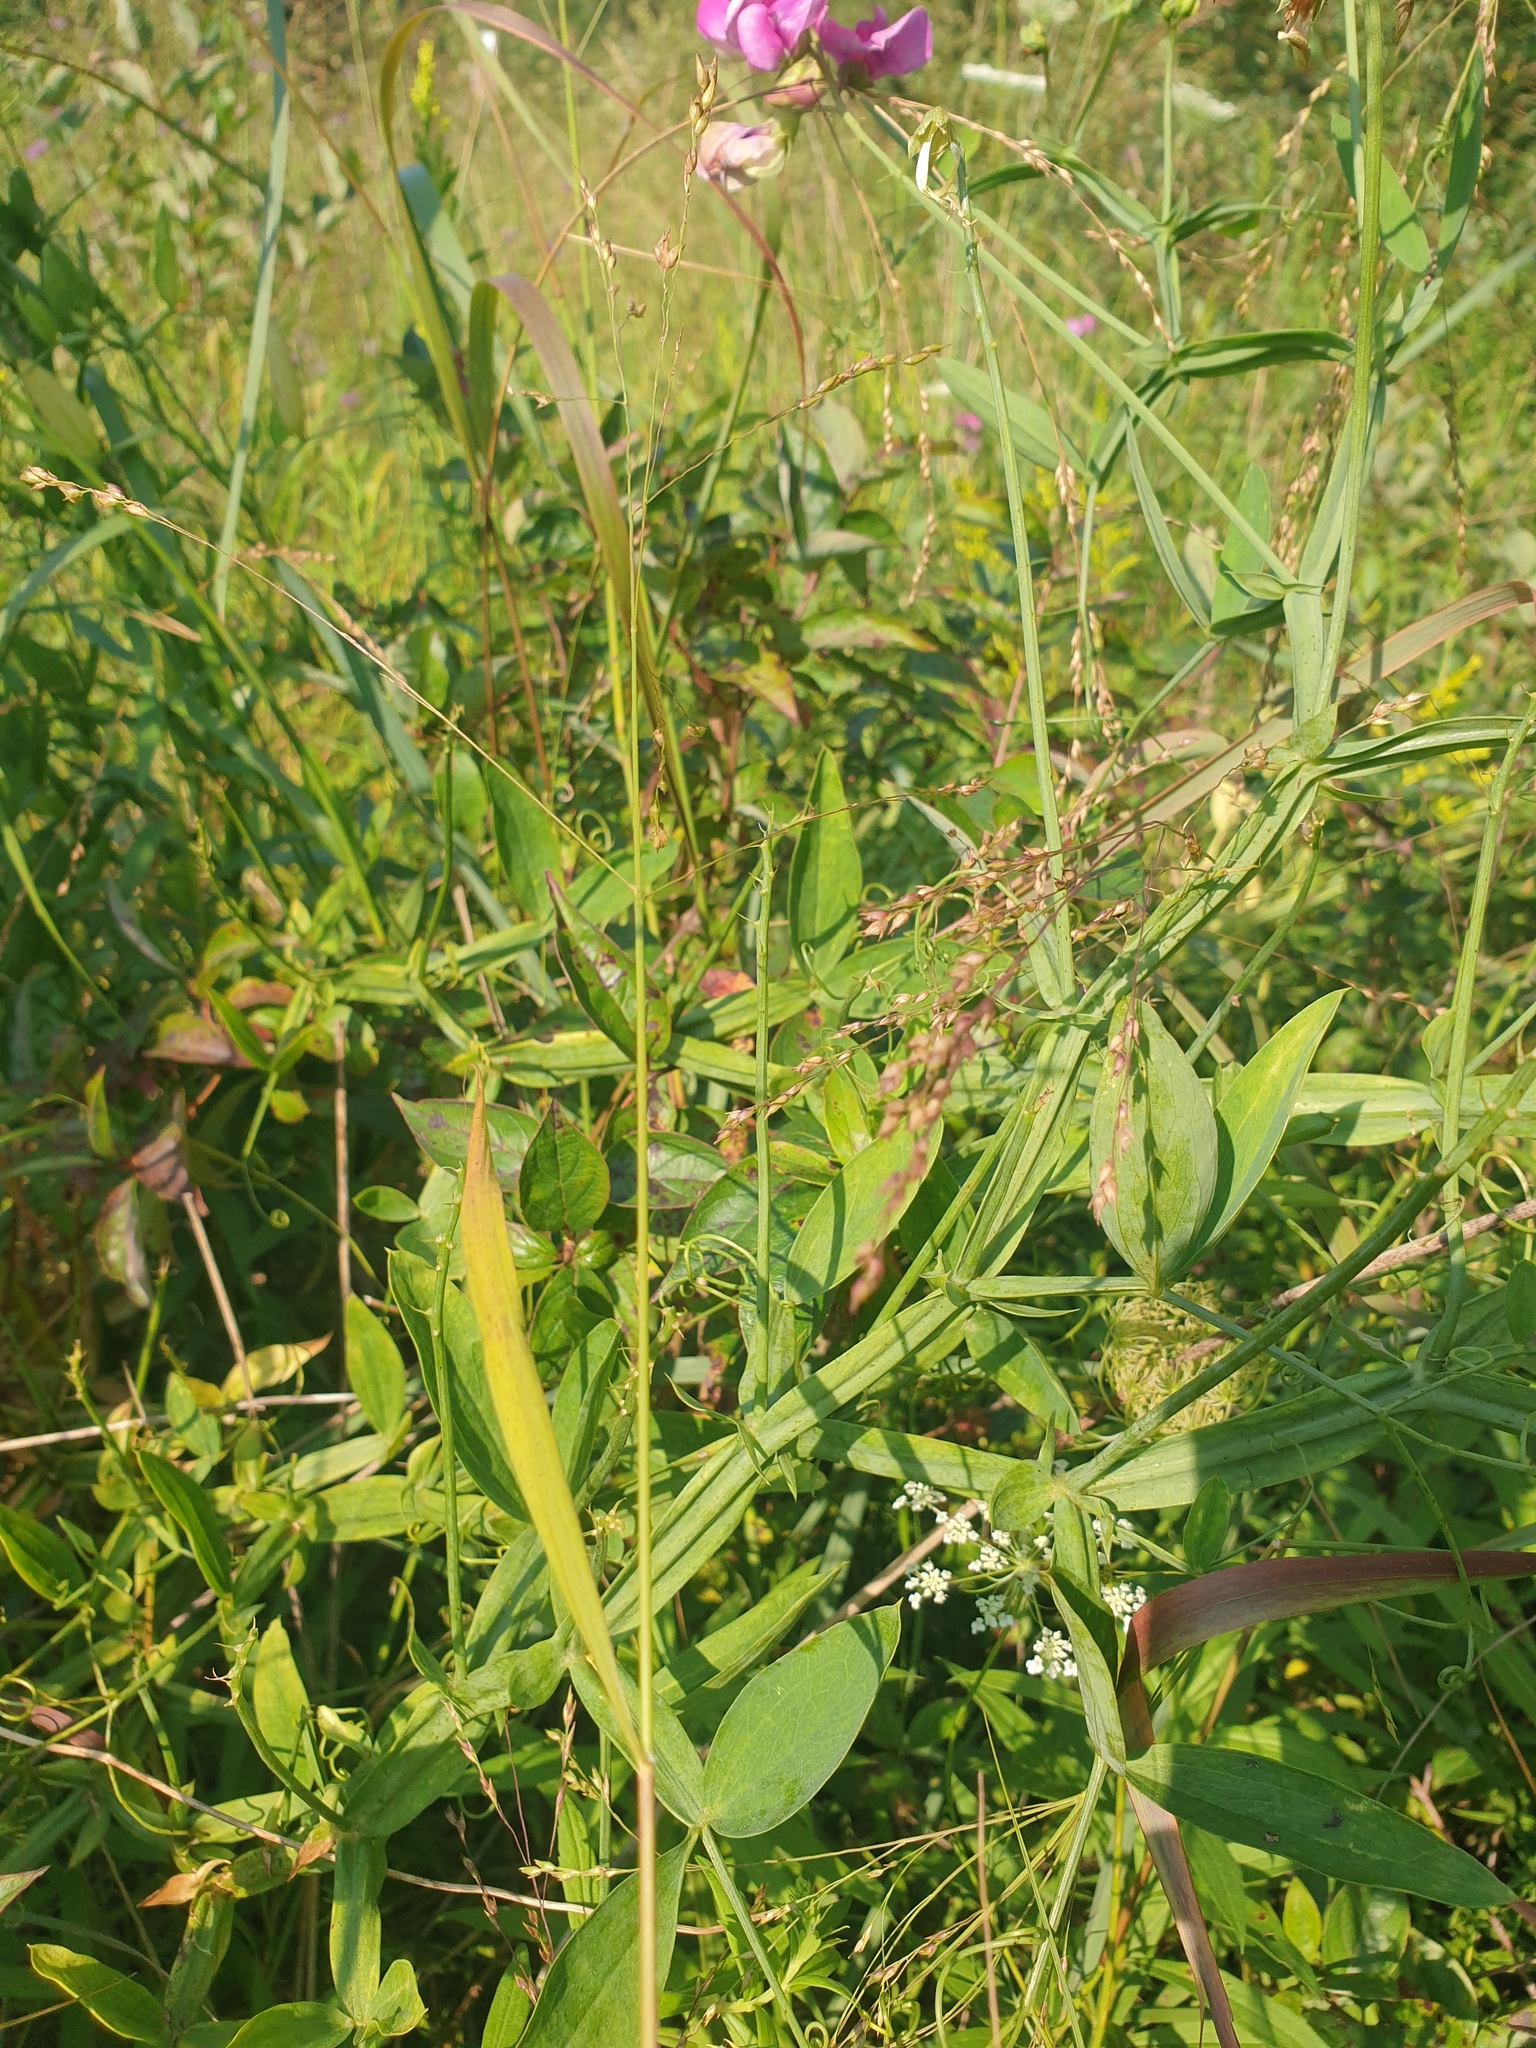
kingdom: Plantae
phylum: Tracheophyta
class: Magnoliopsida
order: Fabales
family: Fabaceae
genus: Lathyrus
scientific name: Lathyrus latifolius
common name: Perennial pea
